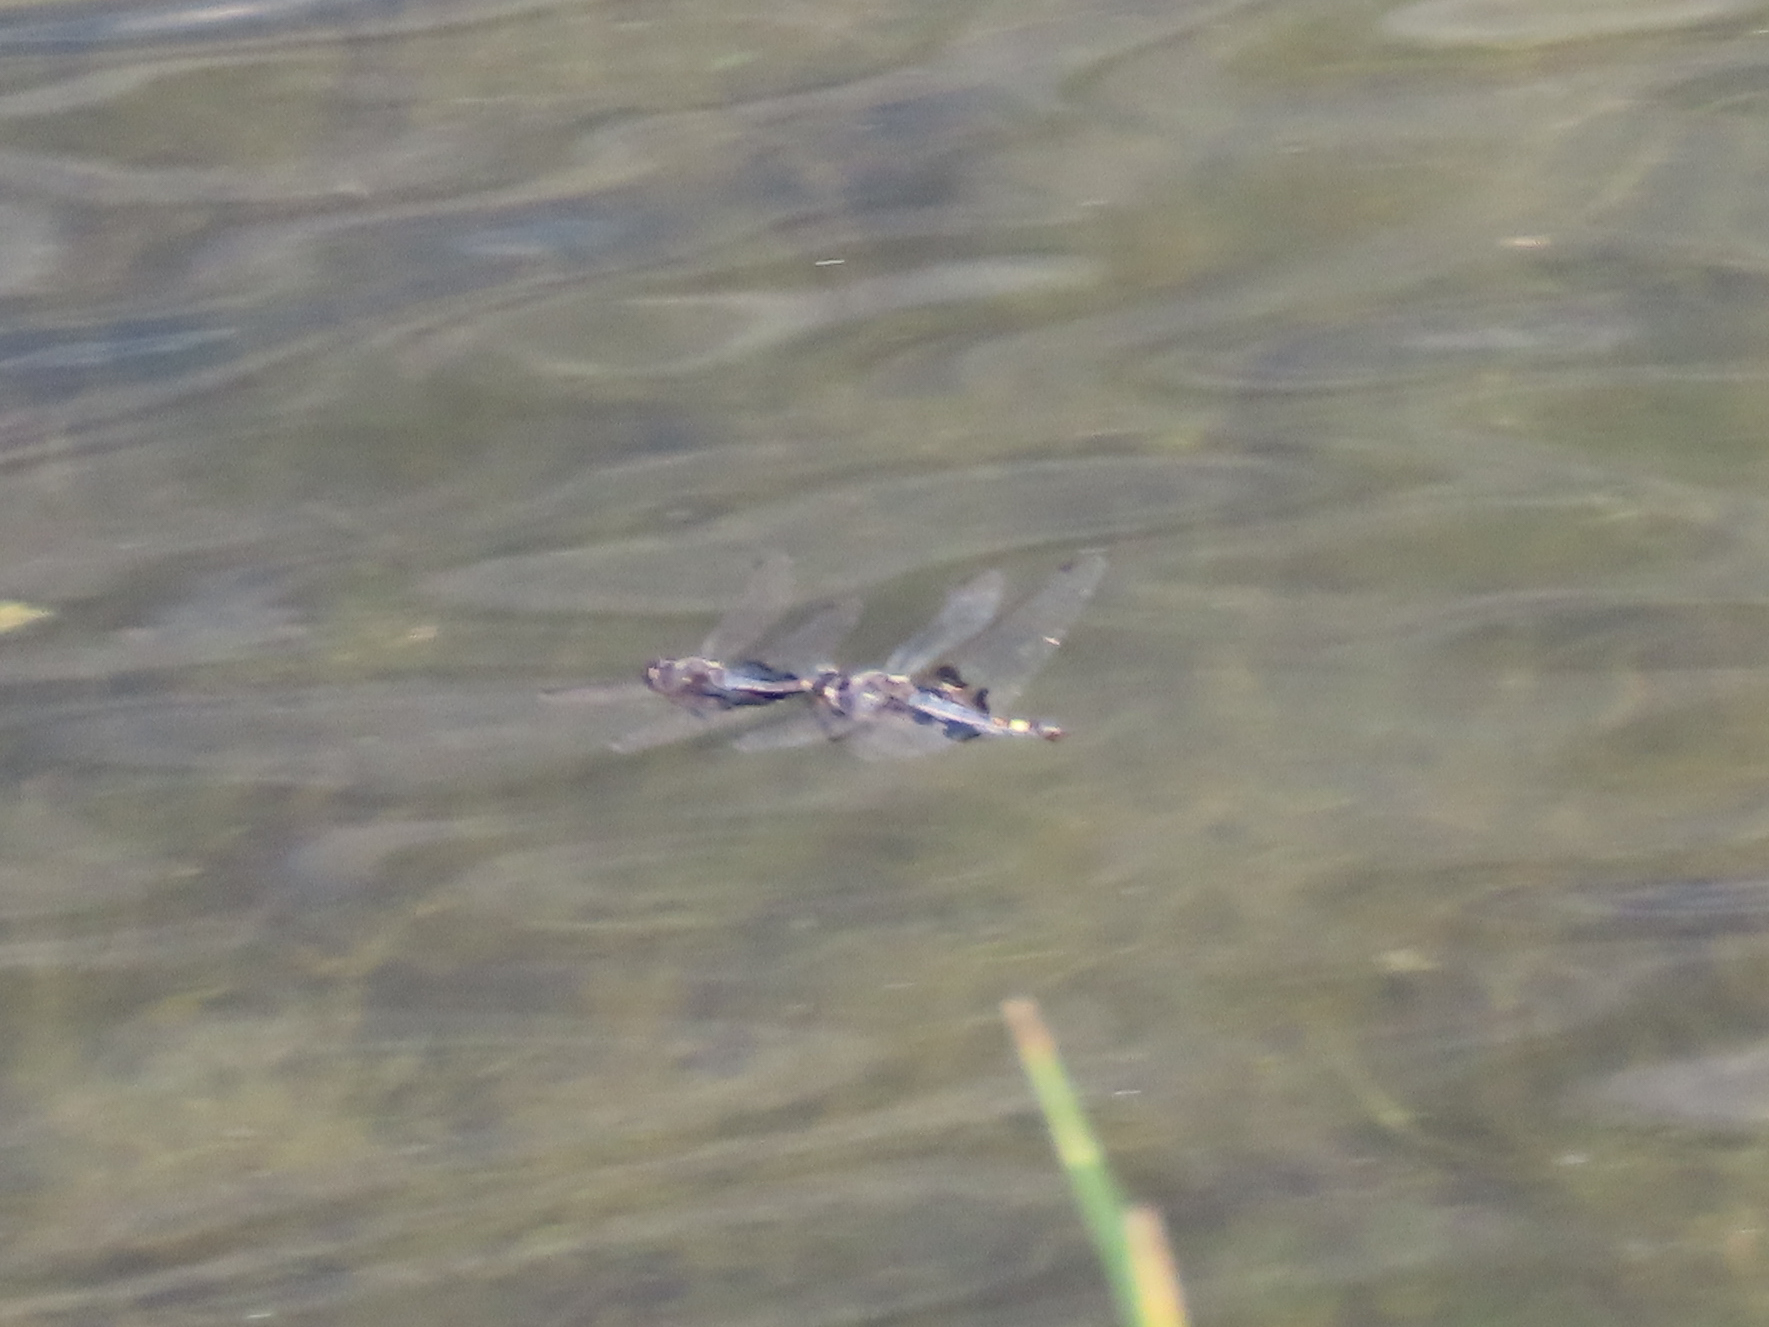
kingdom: Animalia
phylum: Arthropoda
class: Insecta
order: Odonata
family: Libellulidae
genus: Tramea
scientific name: Tramea lacerata
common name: Black saddlebags
